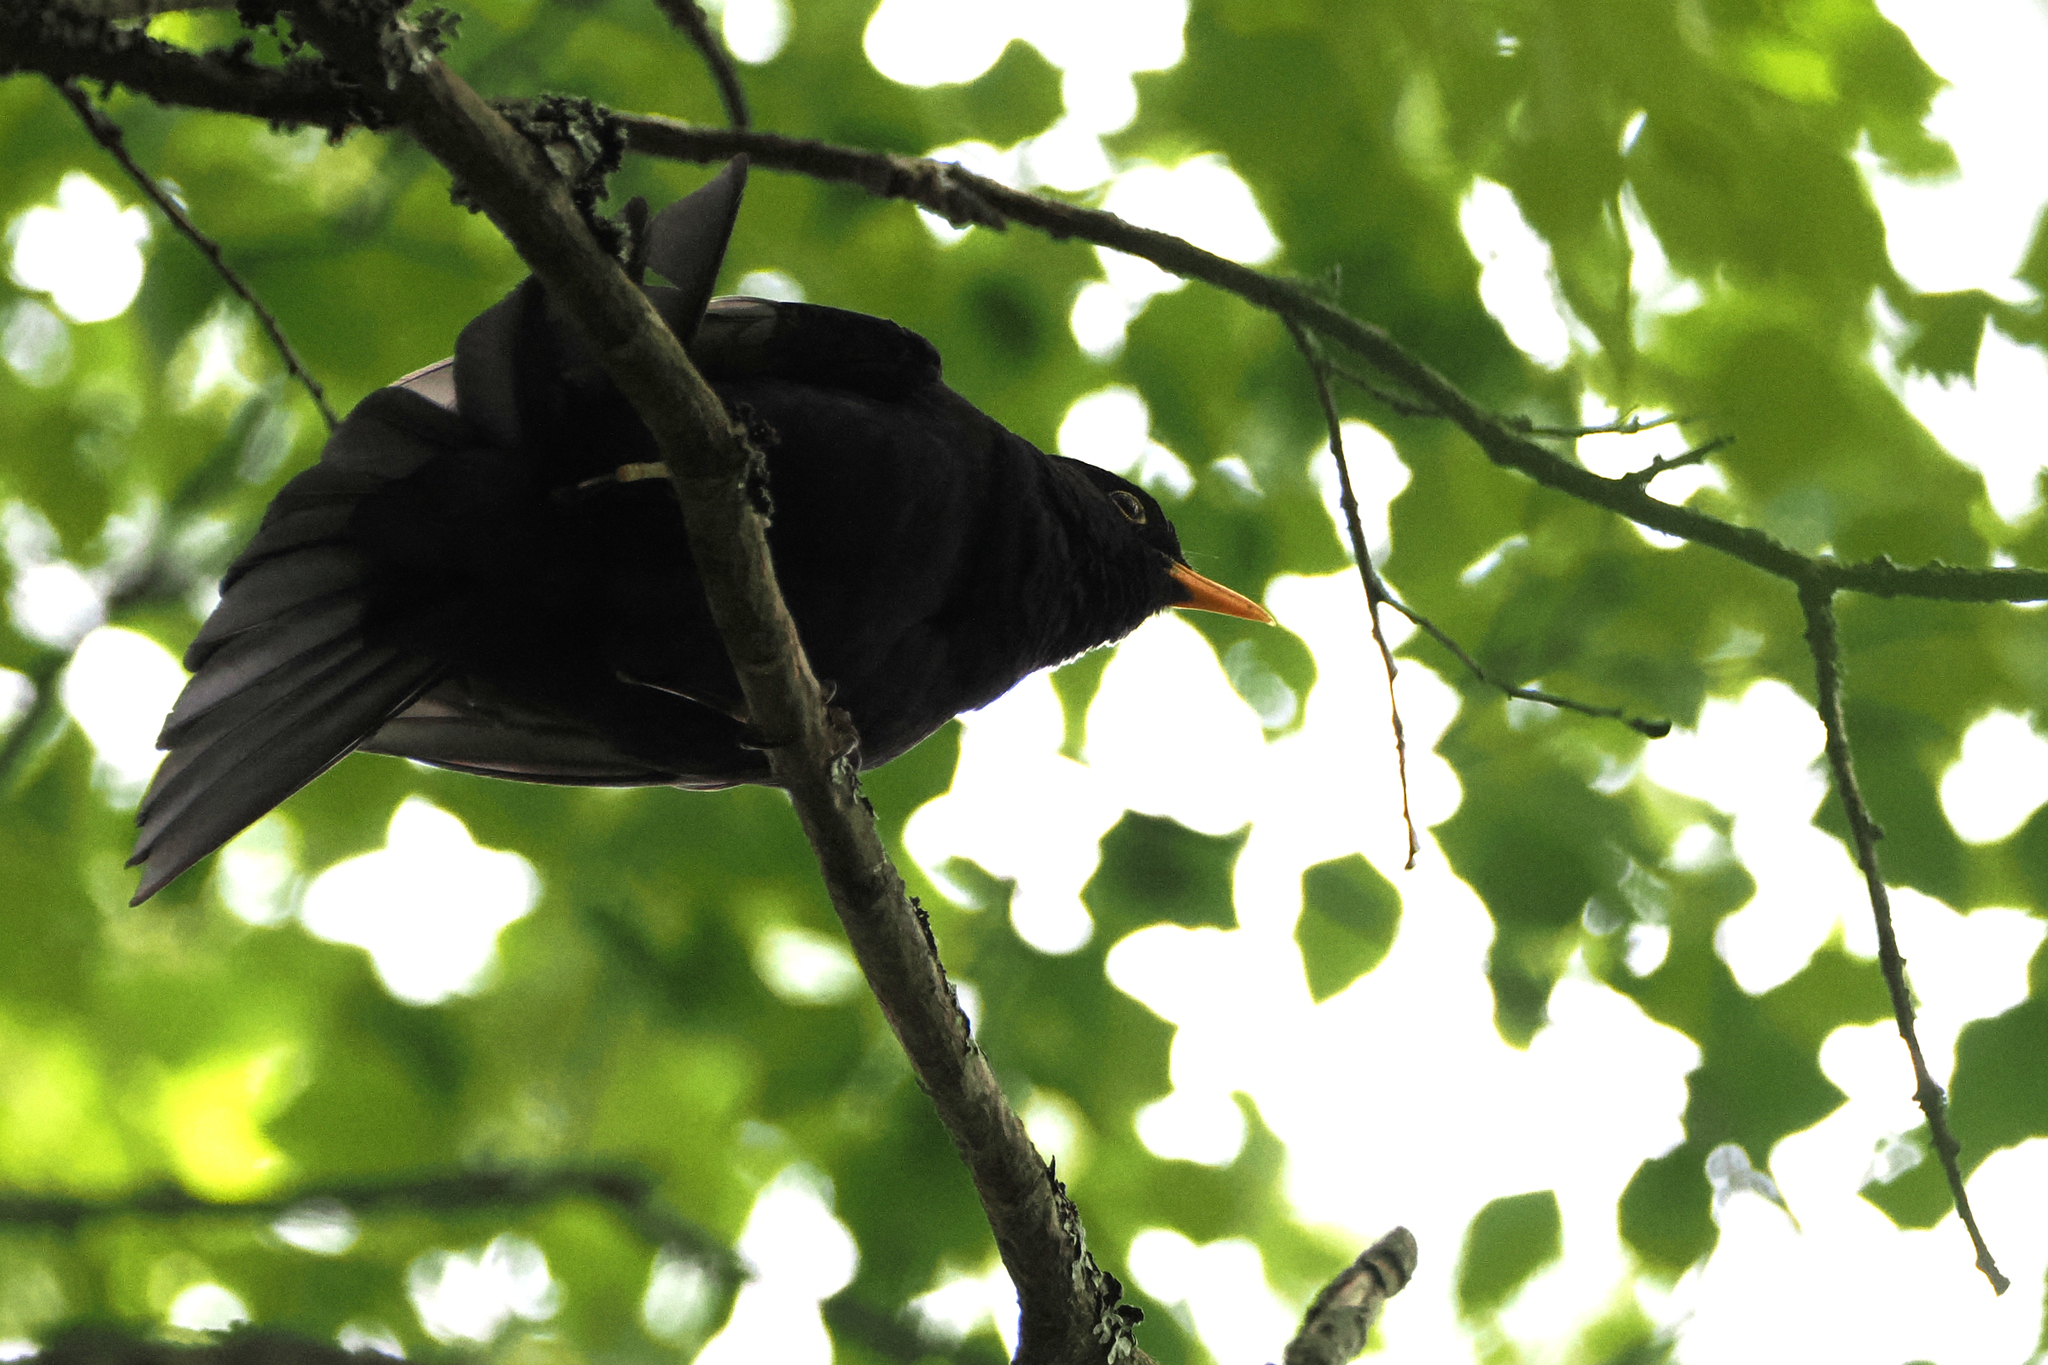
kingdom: Animalia
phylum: Chordata
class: Aves
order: Passeriformes
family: Turdidae
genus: Turdus
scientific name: Turdus merula
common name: Common blackbird
